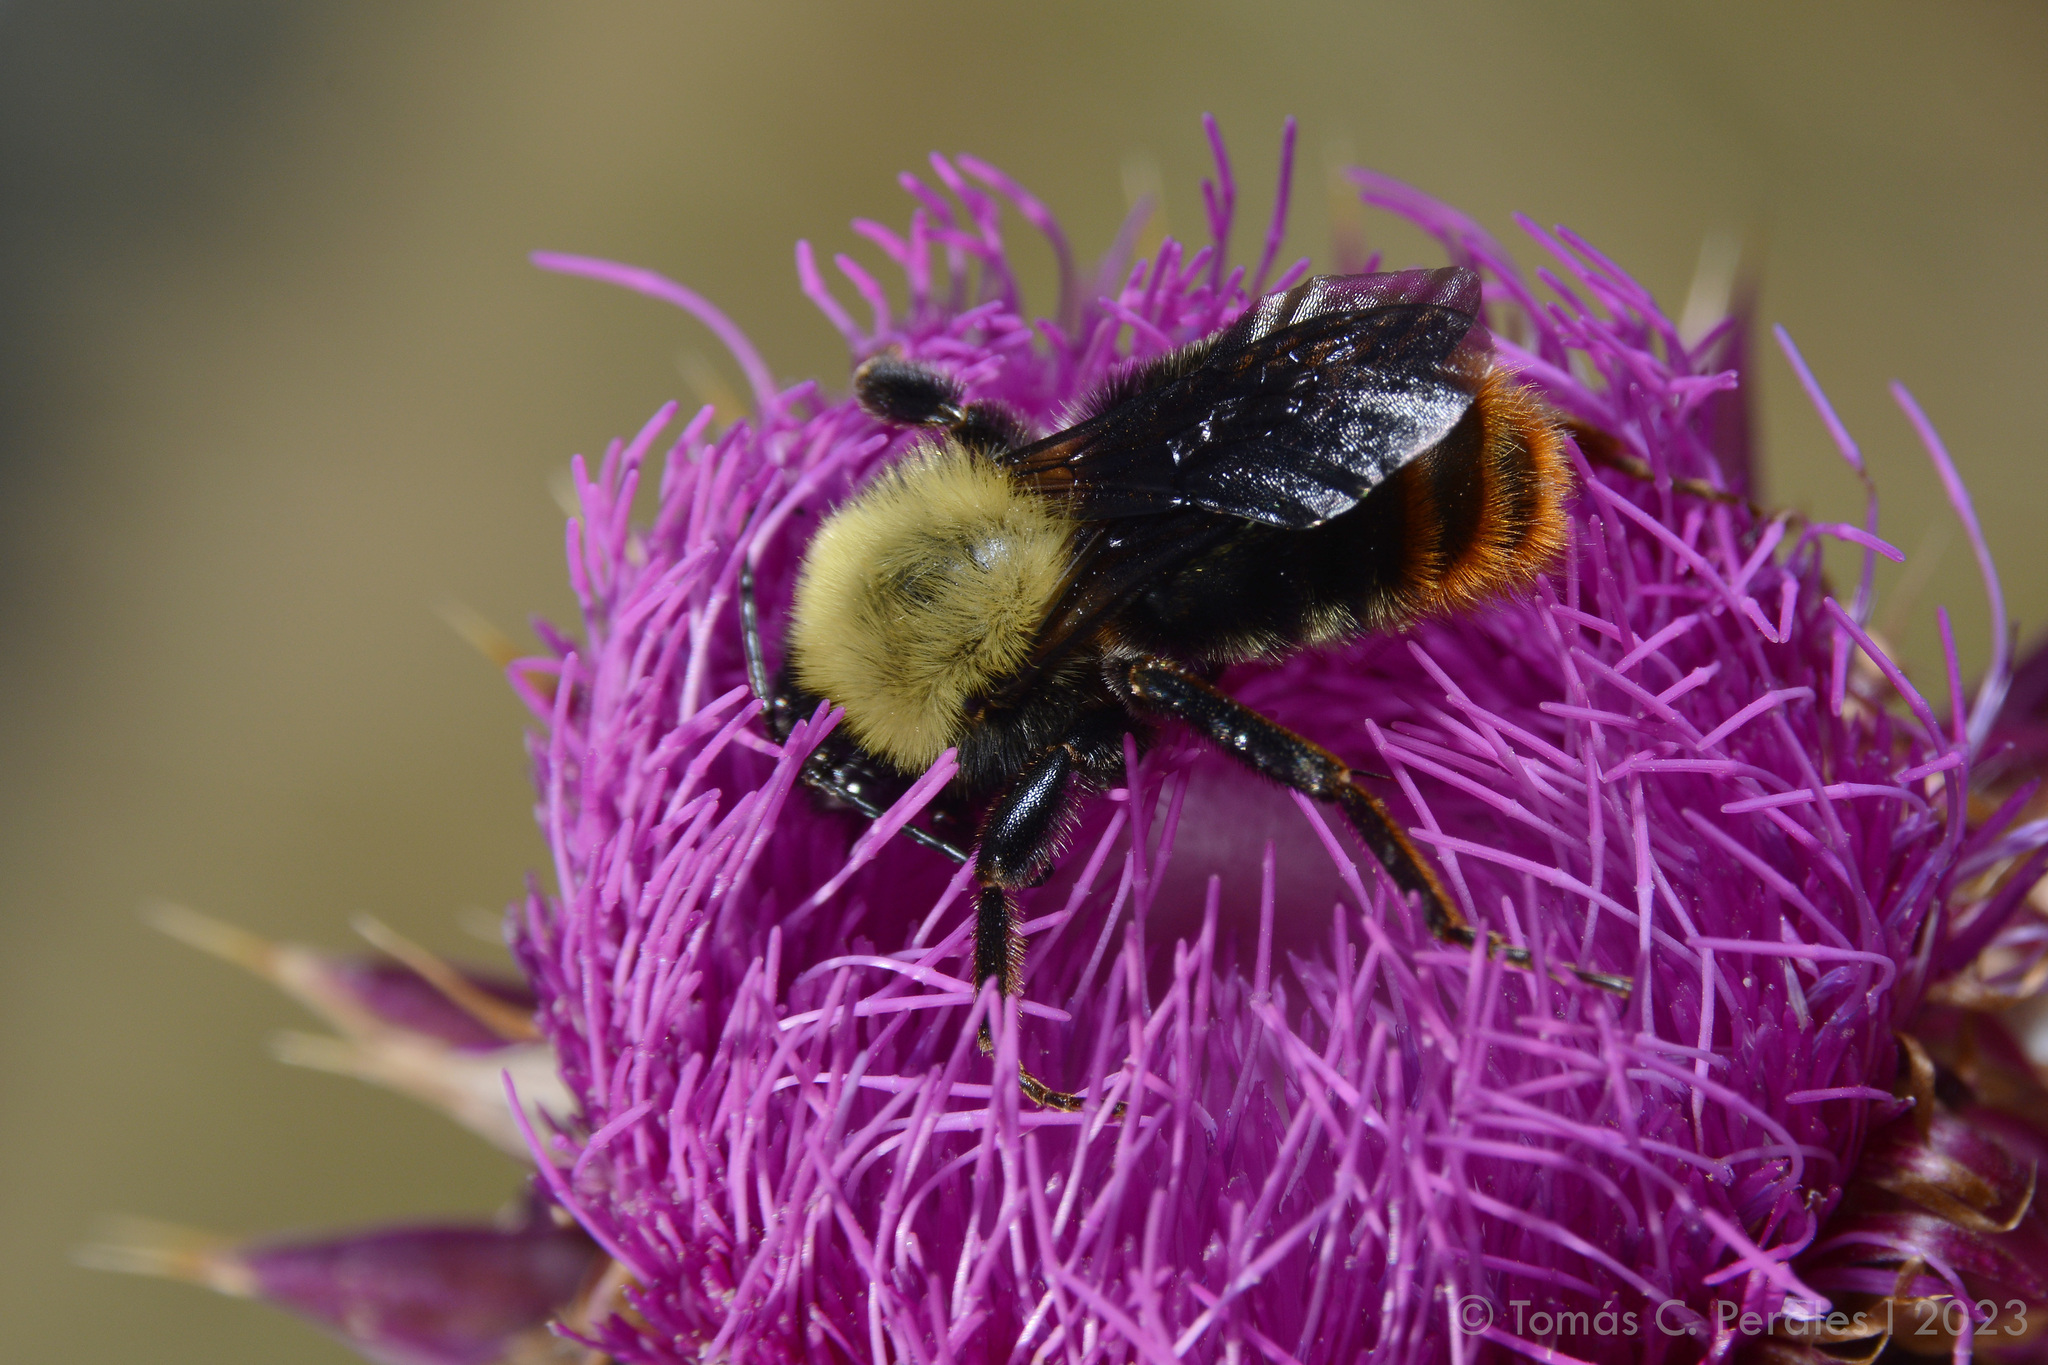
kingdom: Animalia
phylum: Arthropoda
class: Insecta
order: Hymenoptera
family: Apidae
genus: Bombus
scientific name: Bombus bellicosus
